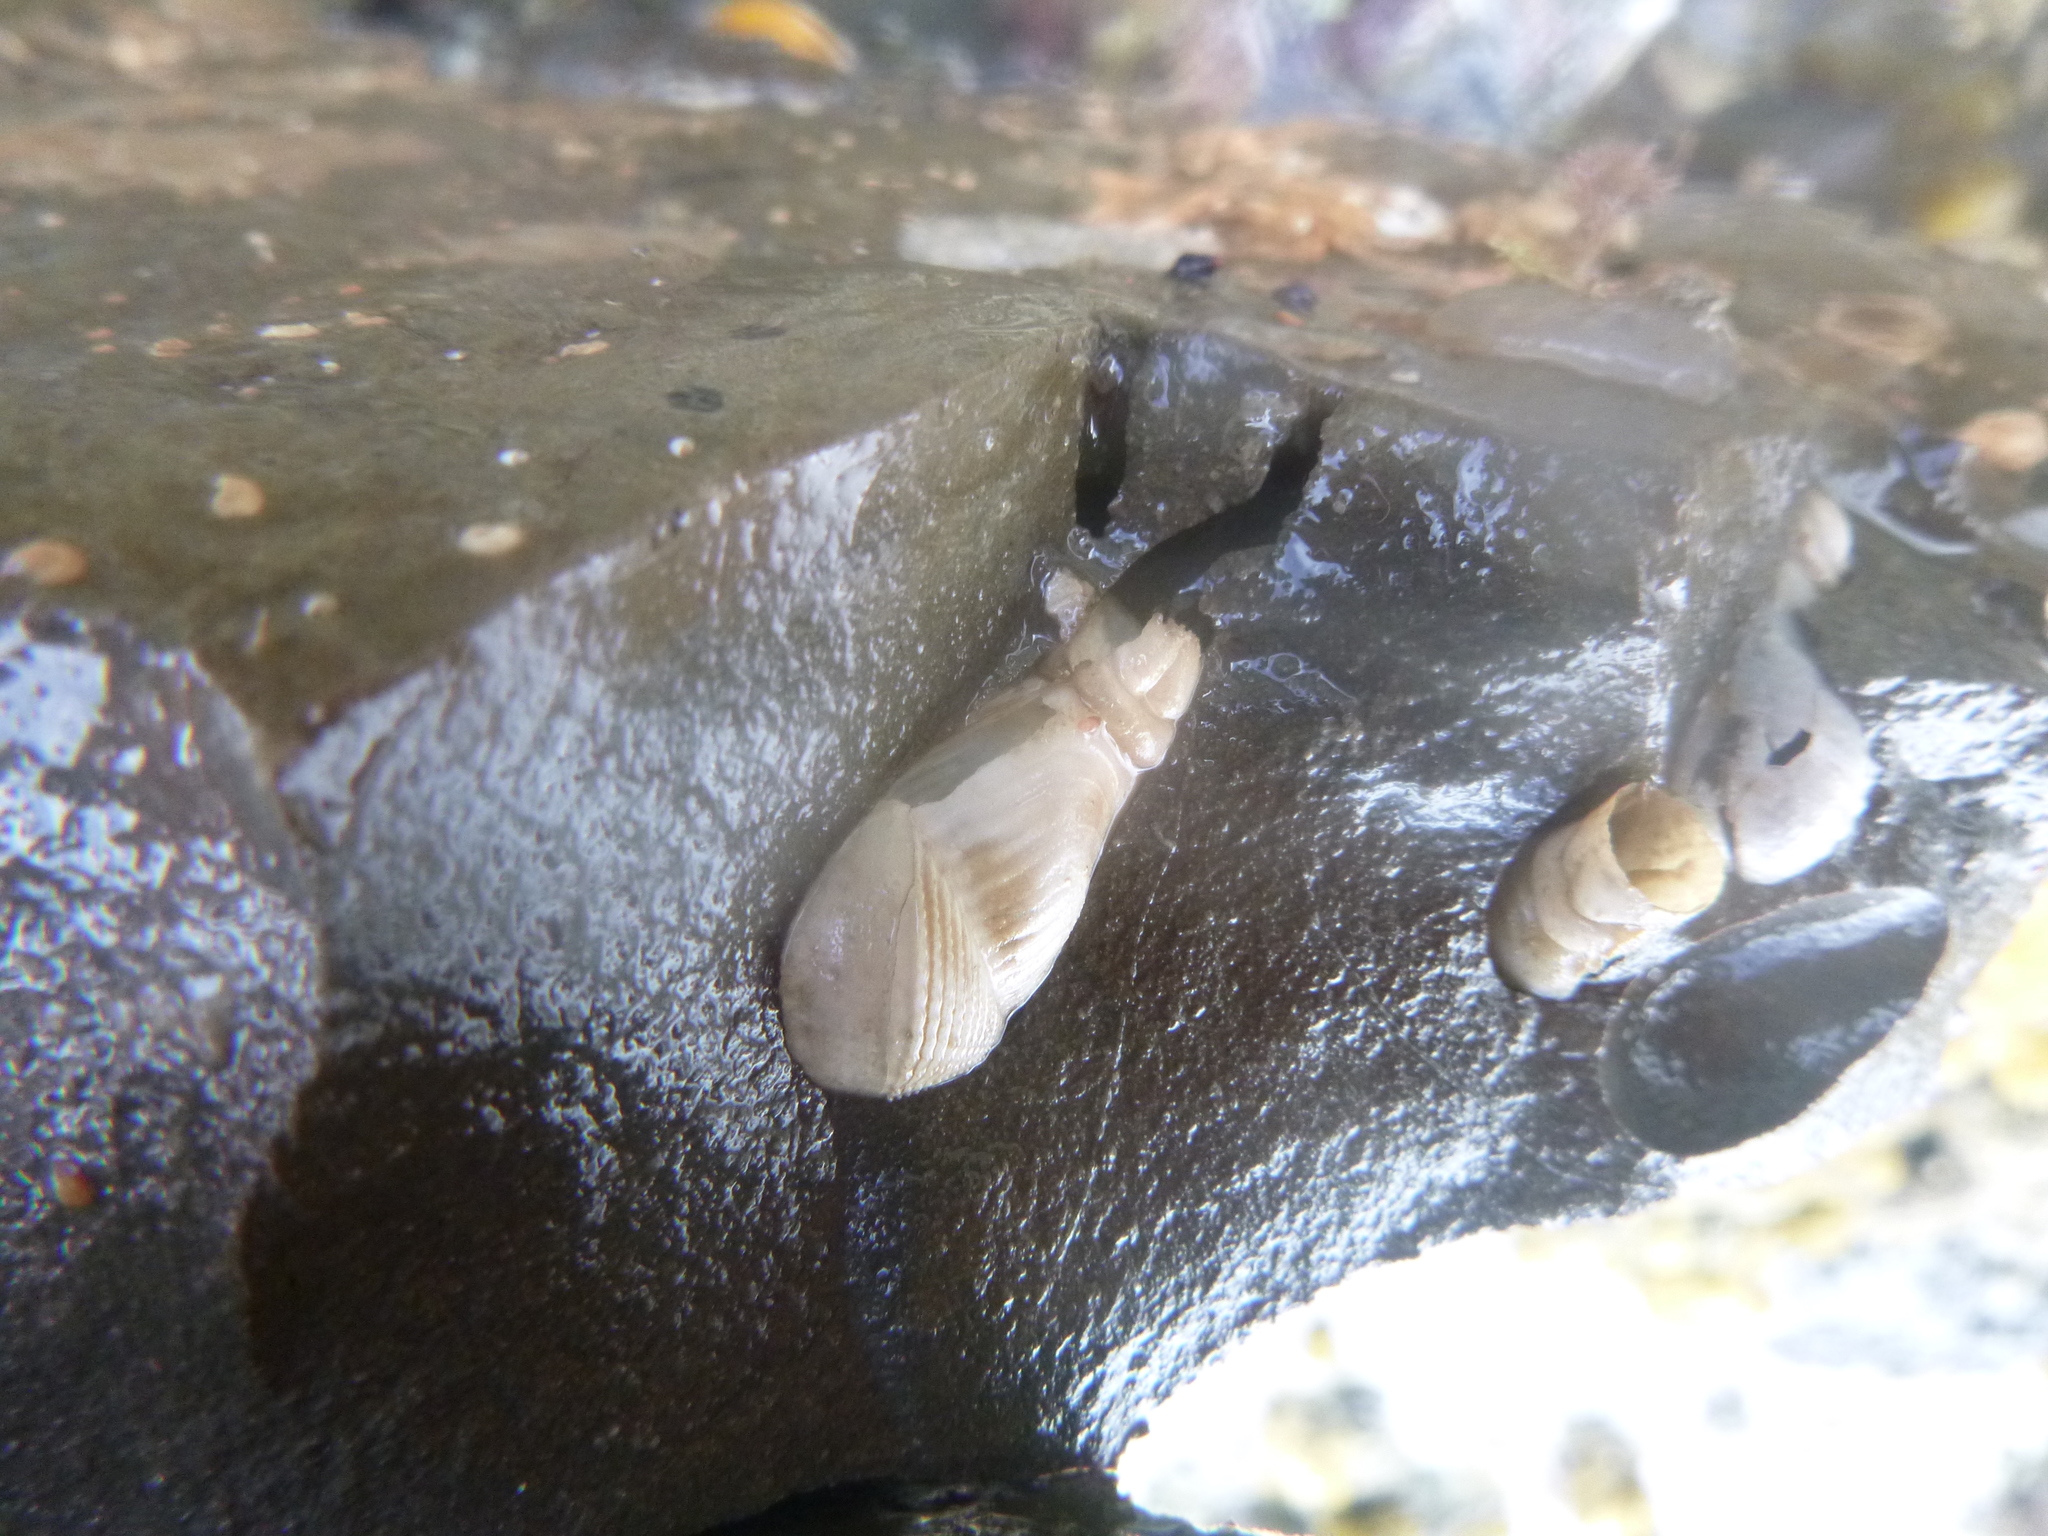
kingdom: Animalia
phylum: Mollusca
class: Bivalvia
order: Myida
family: Pholadidae
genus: Pholadidea
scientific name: Pholadidea tridens
